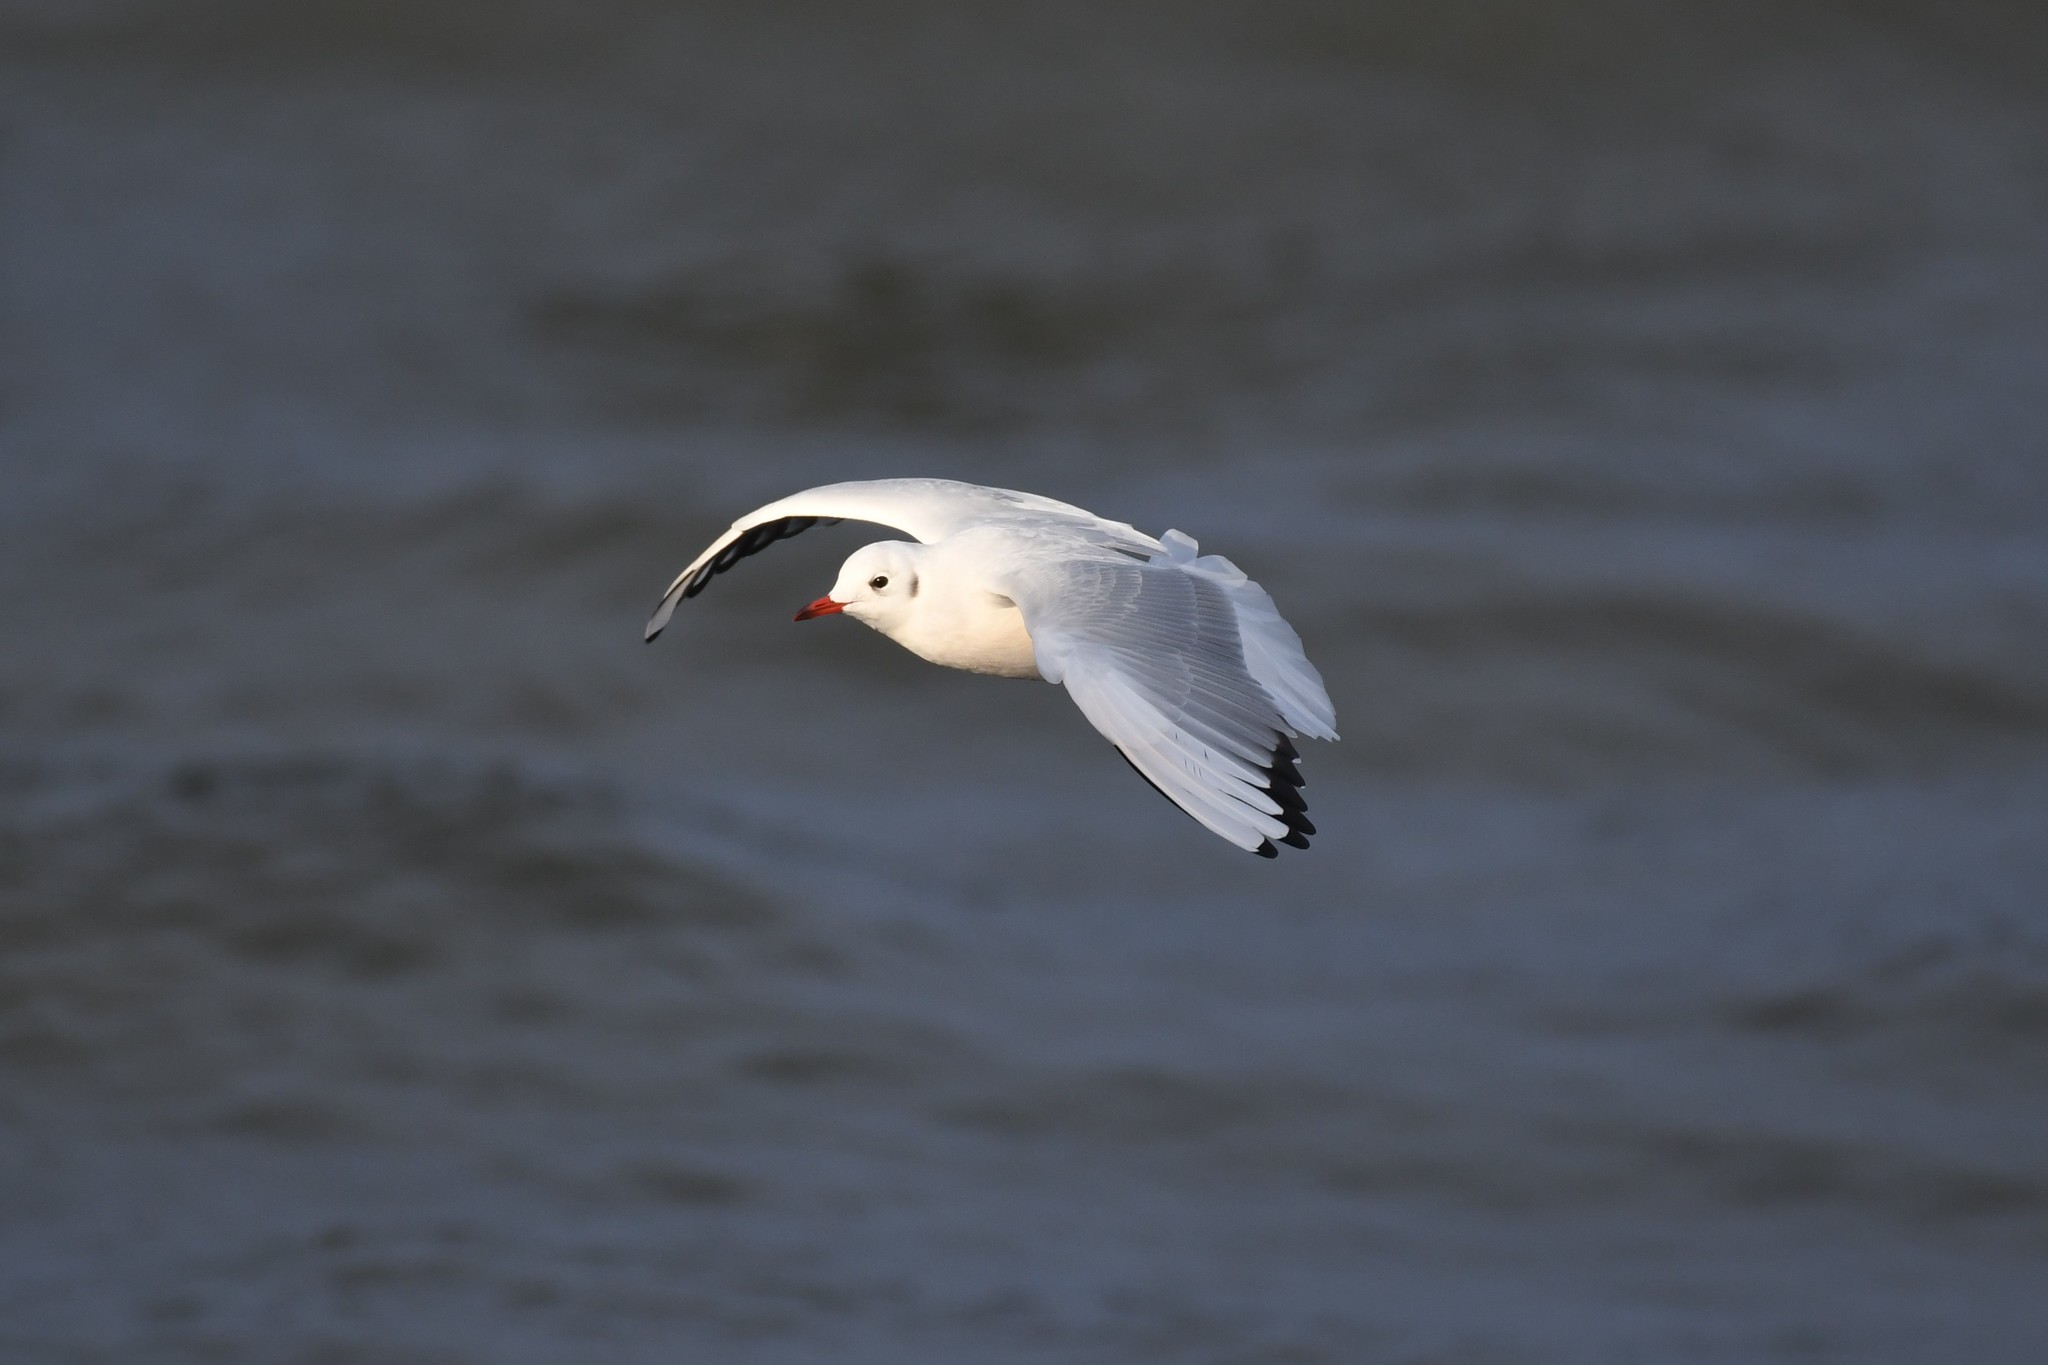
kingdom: Animalia
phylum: Chordata
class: Aves
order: Charadriiformes
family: Laridae
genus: Chroicocephalus
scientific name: Chroicocephalus ridibundus
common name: Black-headed gull
